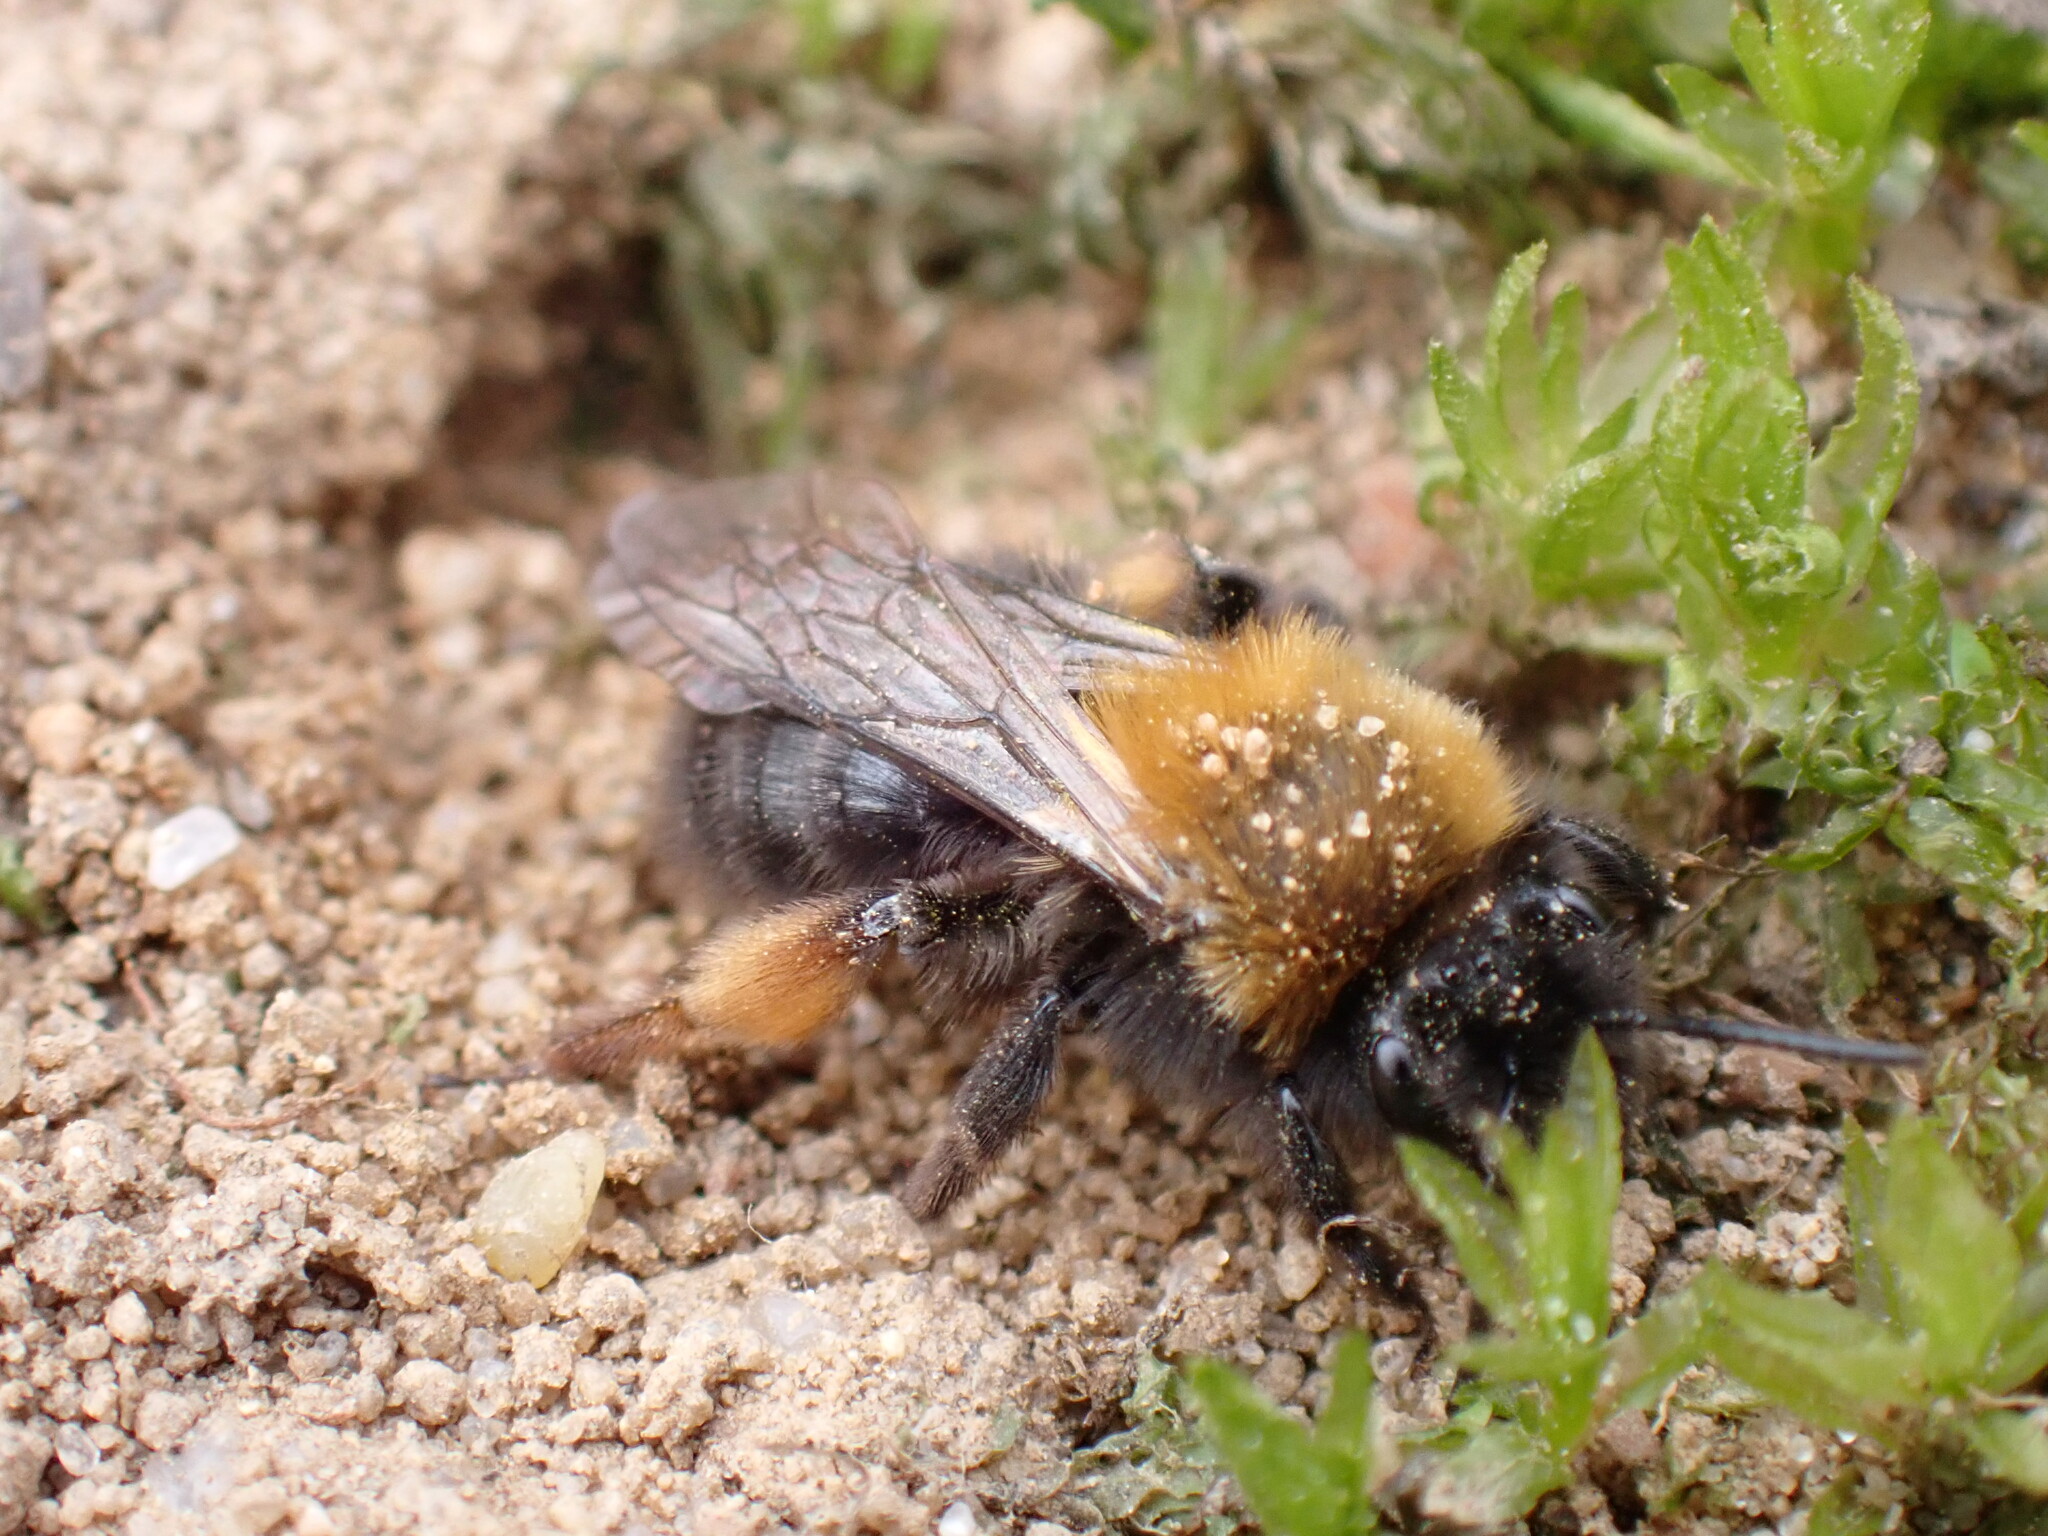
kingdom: Animalia
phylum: Arthropoda
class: Insecta
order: Hymenoptera
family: Andrenidae
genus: Andrena
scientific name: Andrena clarkella
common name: Clarke's mining bee
